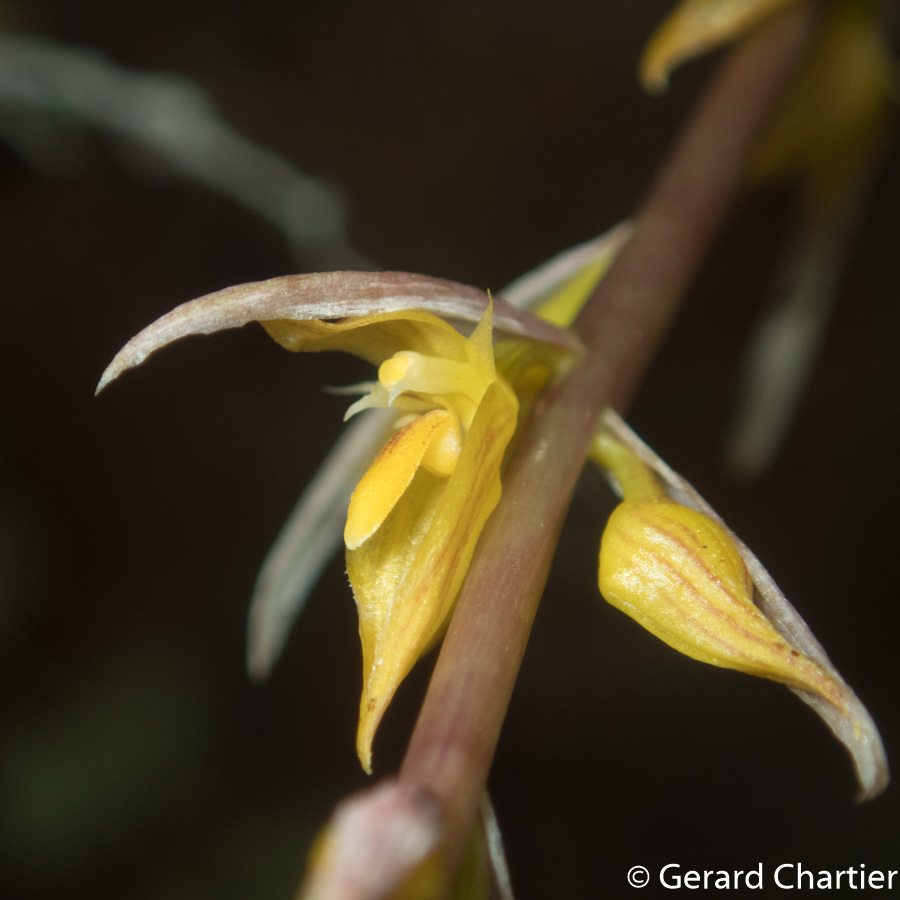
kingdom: Plantae
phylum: Tracheophyta
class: Liliopsida
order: Asparagales
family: Orchidaceae
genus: Bulbophyllum
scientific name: Bulbophyllum rufinum
